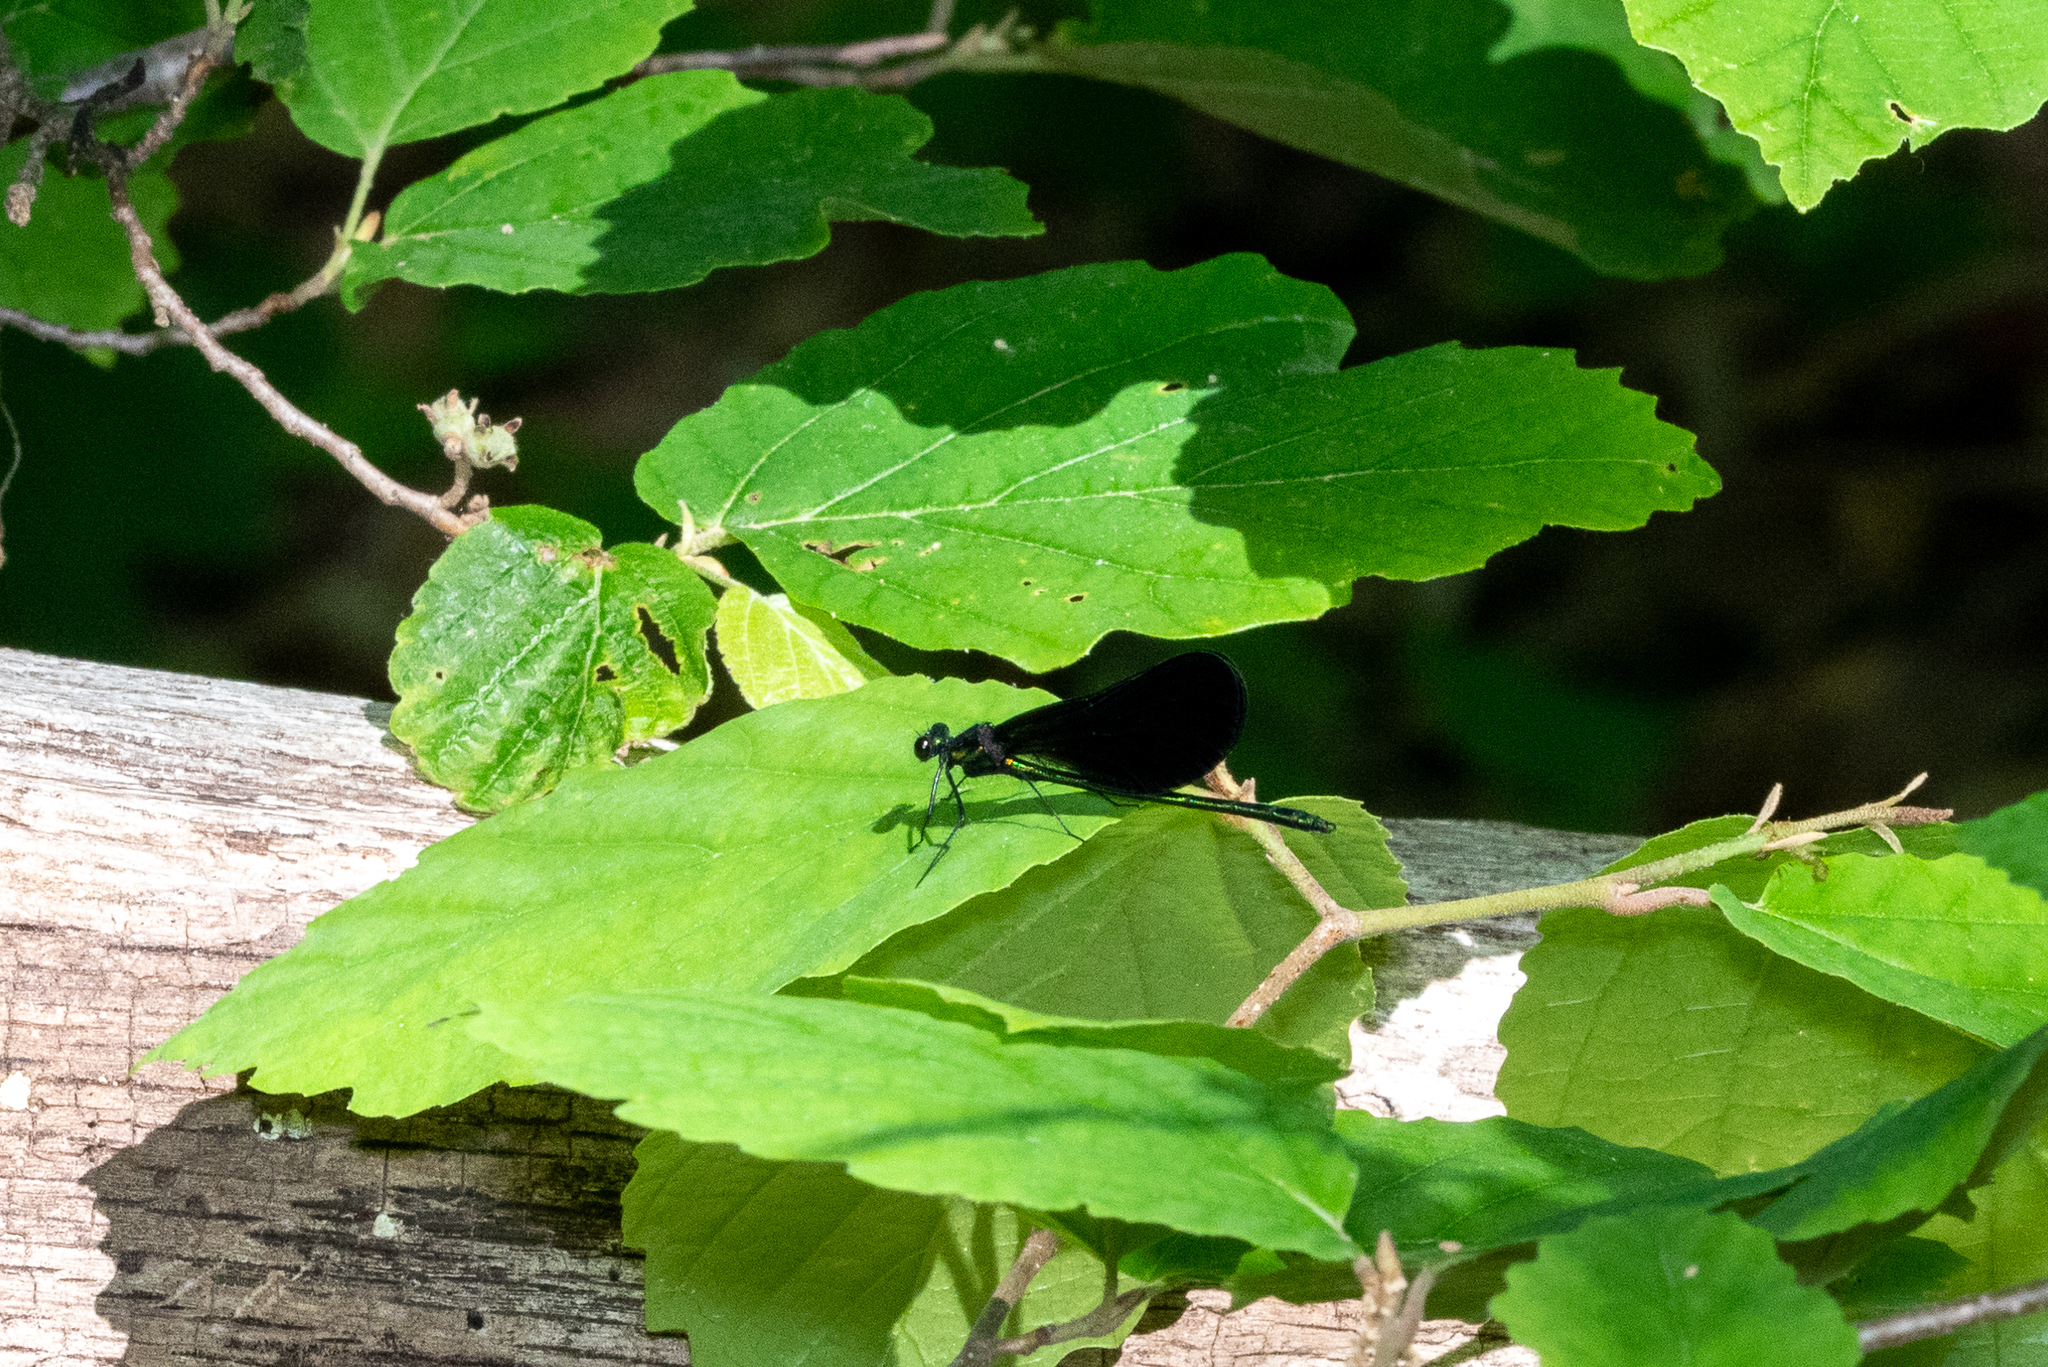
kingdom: Animalia
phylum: Arthropoda
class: Insecta
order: Odonata
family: Calopterygidae
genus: Calopteryx
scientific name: Calopteryx maculata
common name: Ebony jewelwing
